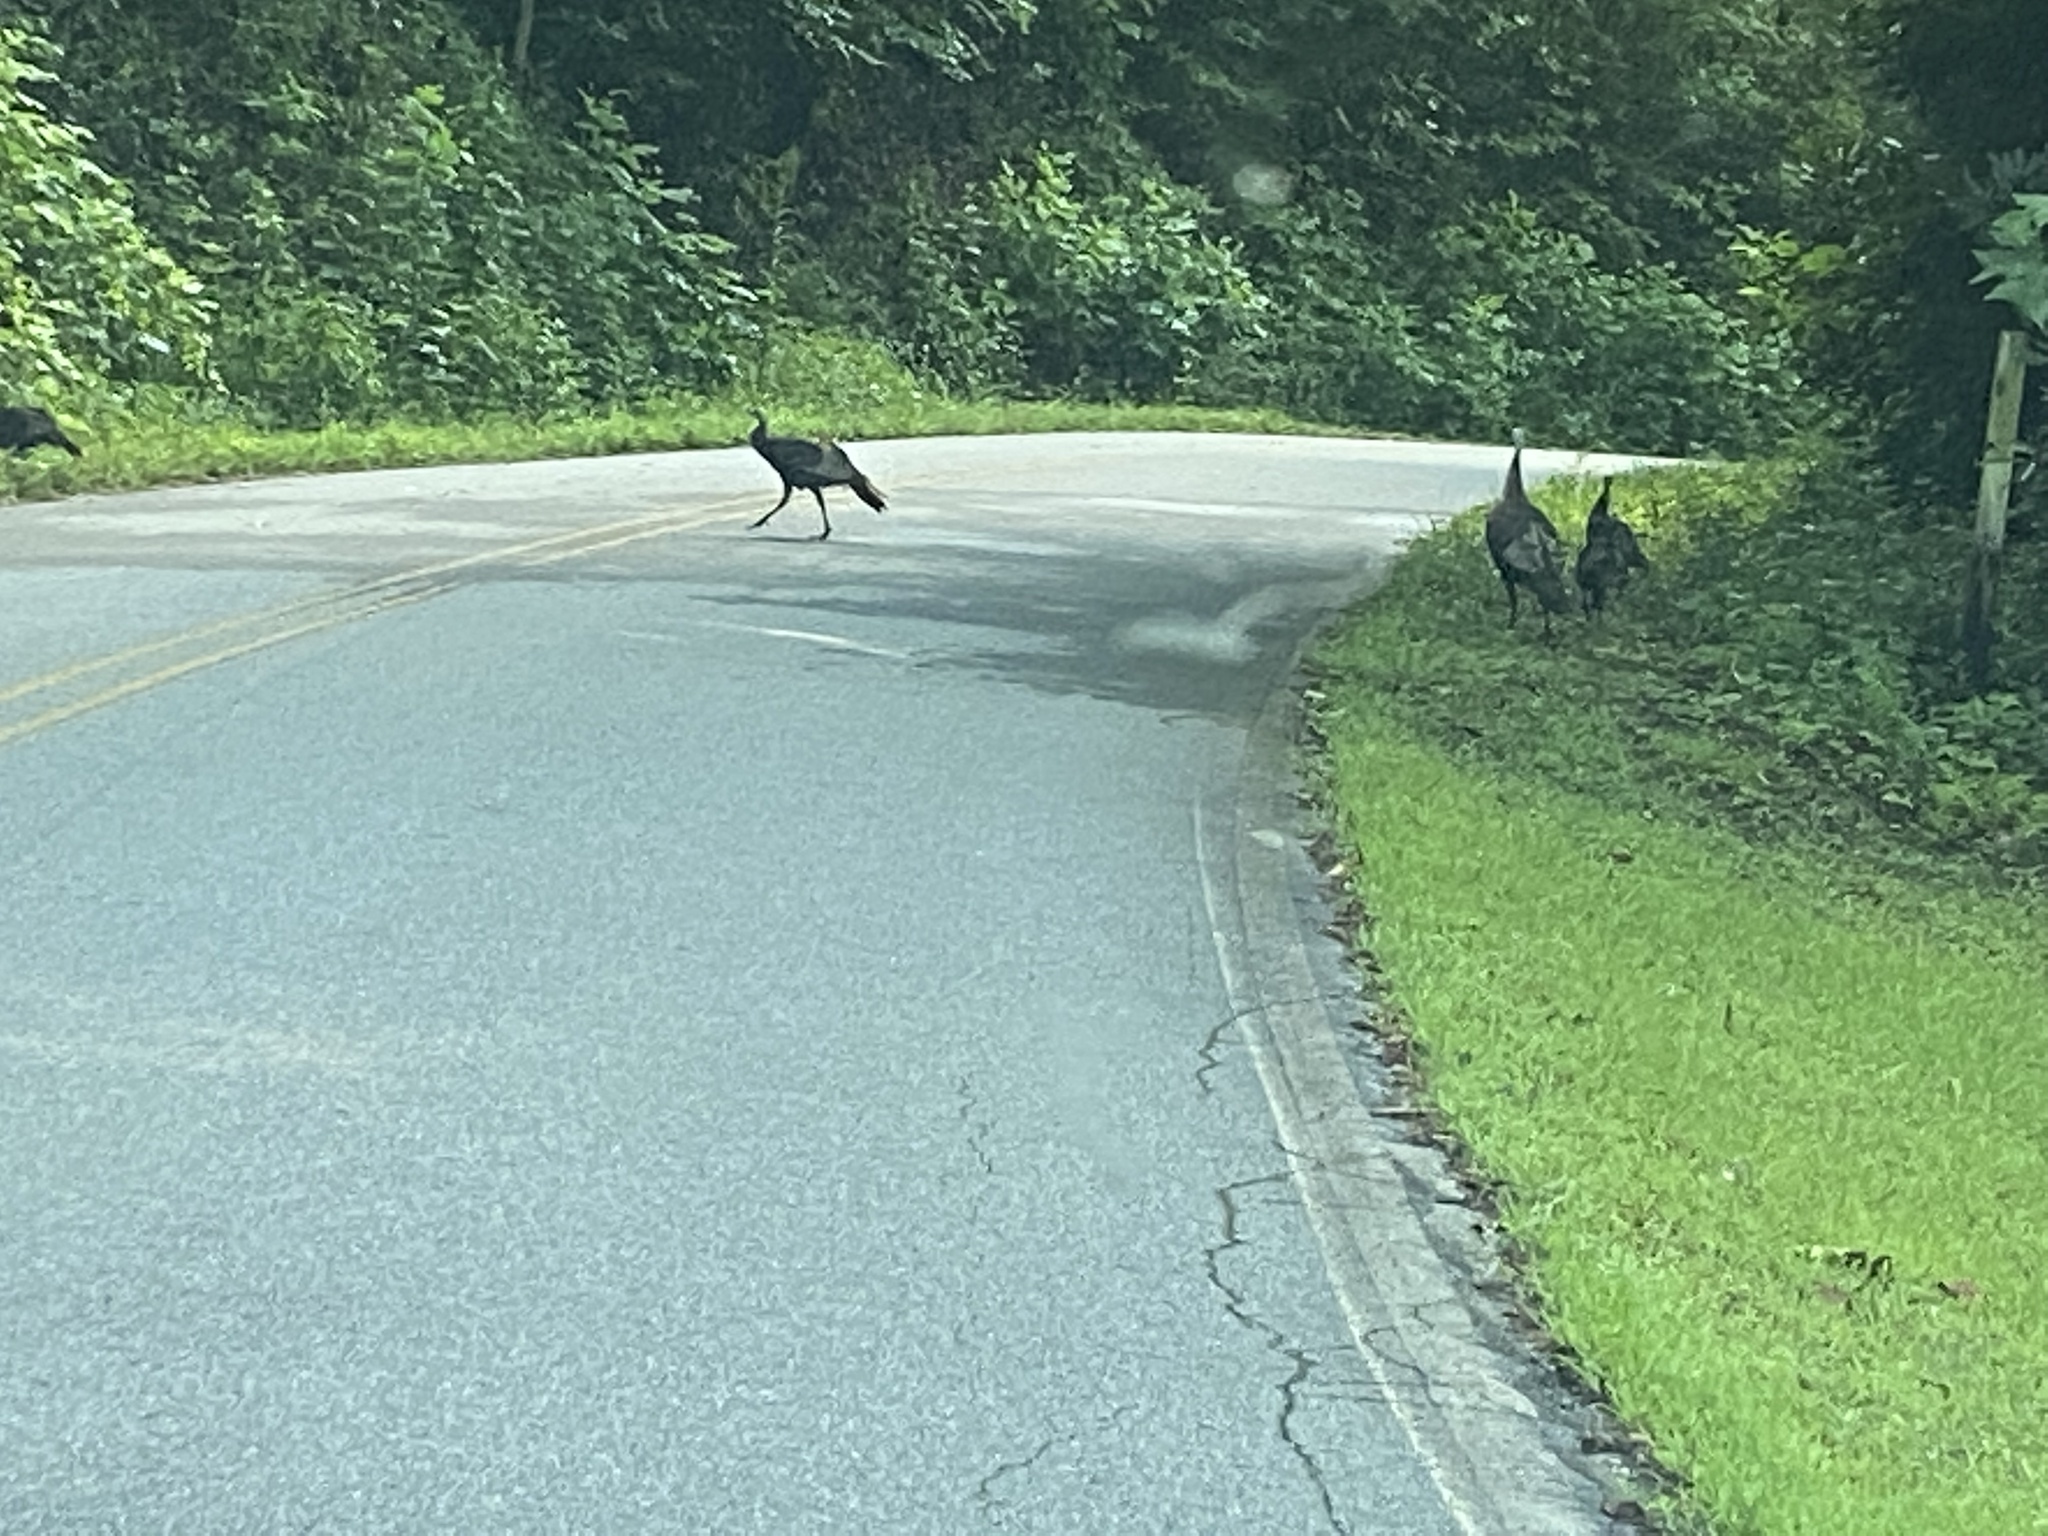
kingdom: Animalia
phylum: Chordata
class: Aves
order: Galliformes
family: Phasianidae
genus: Meleagris
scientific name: Meleagris gallopavo
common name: Wild turkey
